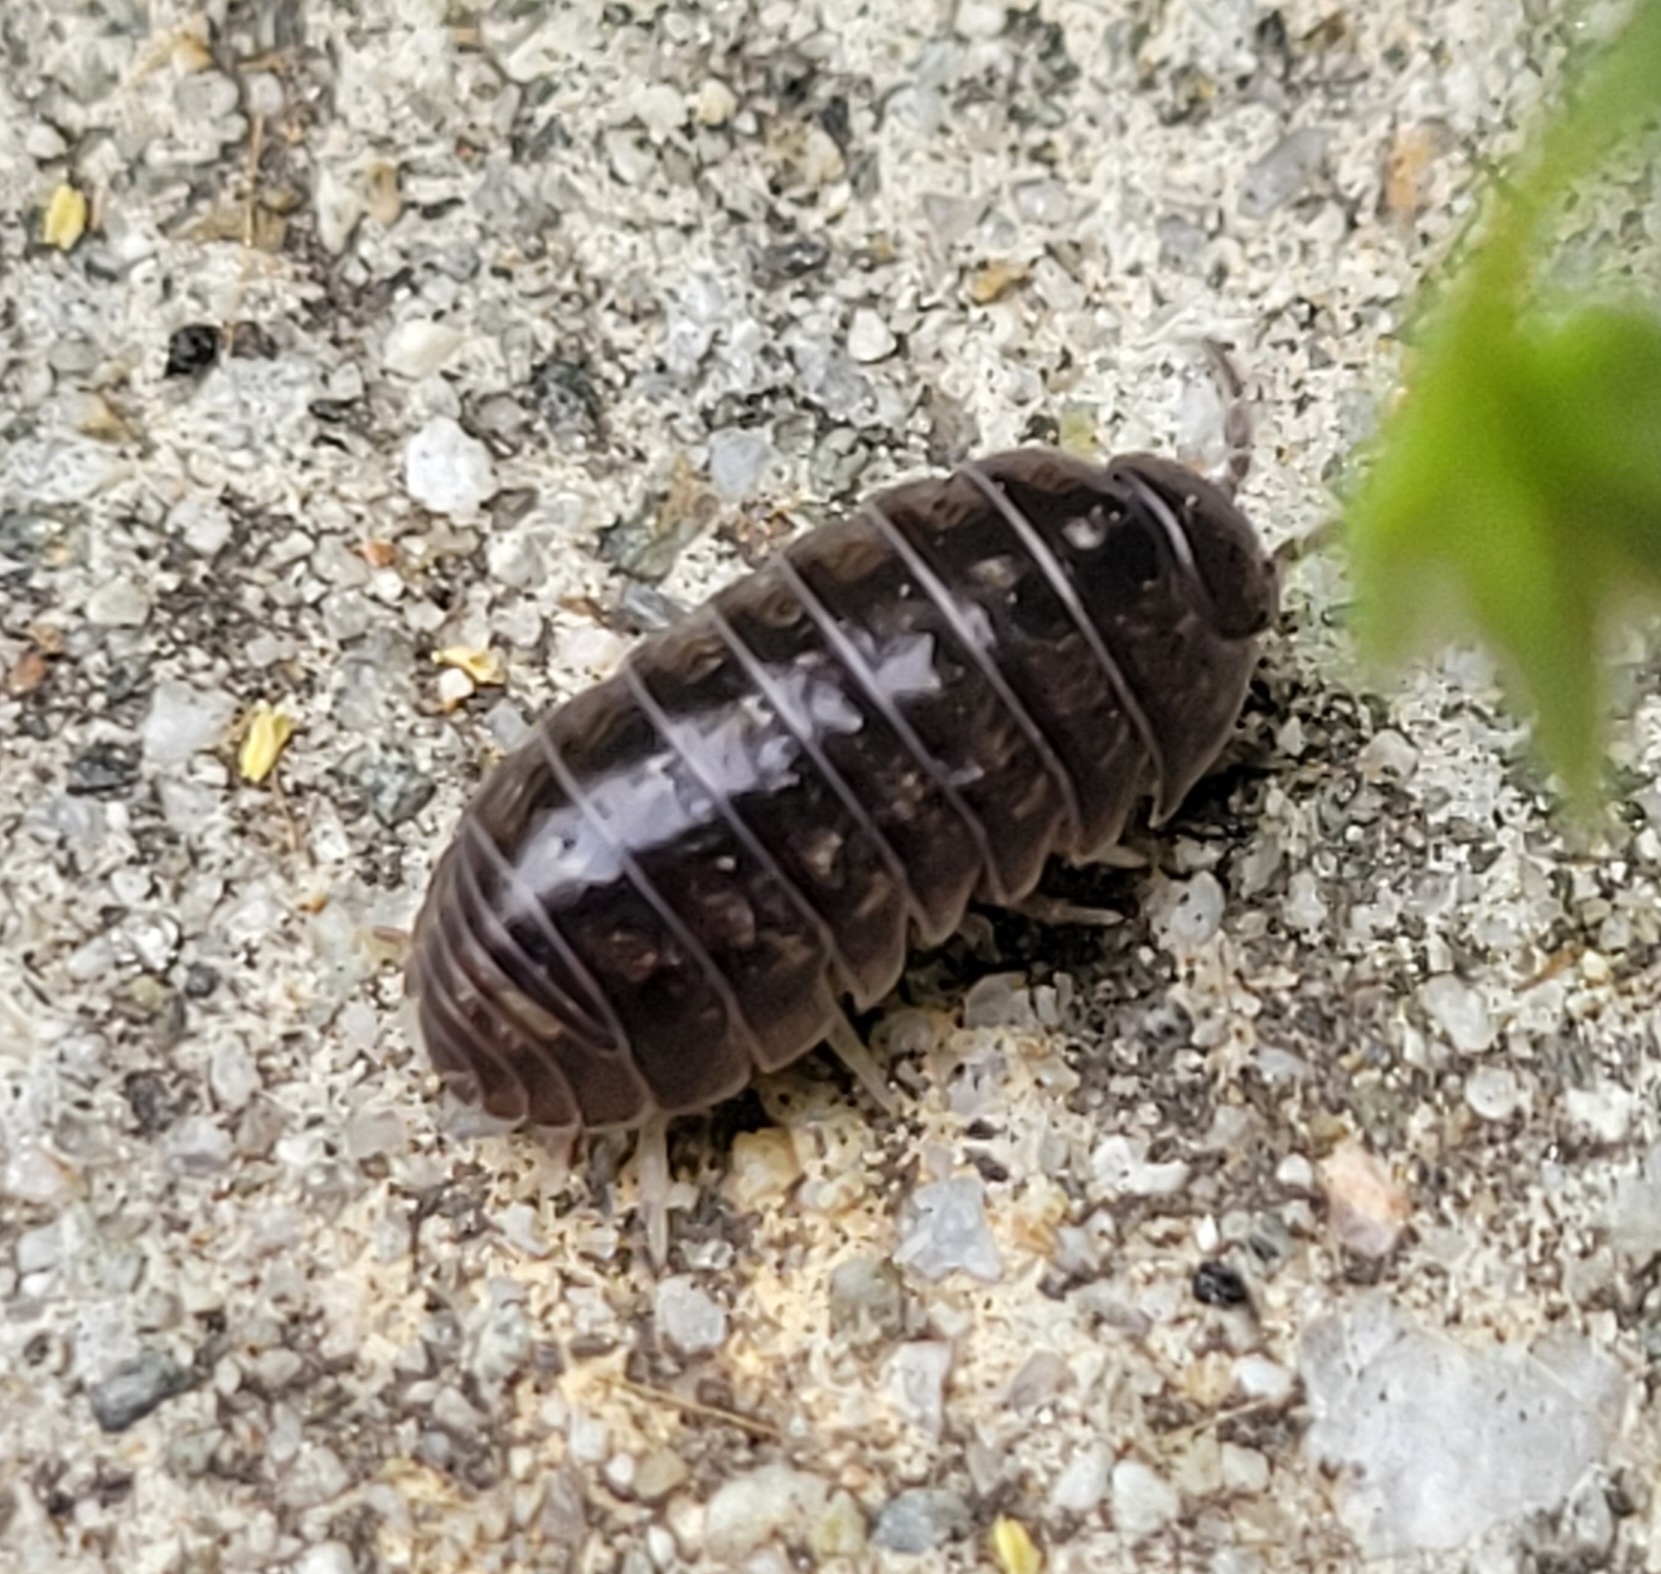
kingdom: Animalia
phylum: Arthropoda
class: Malacostraca
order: Isopoda
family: Armadillidiidae
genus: Armadillidium
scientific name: Armadillidium vulgare
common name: Common pill woodlouse
